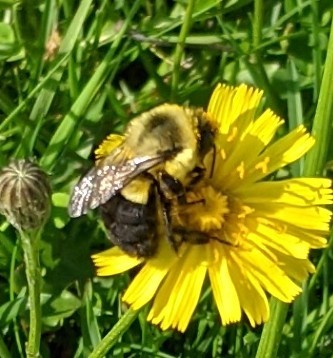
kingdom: Animalia
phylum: Arthropoda
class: Insecta
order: Hymenoptera
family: Apidae
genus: Bombus
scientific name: Bombus impatiens
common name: Common eastern bumble bee
